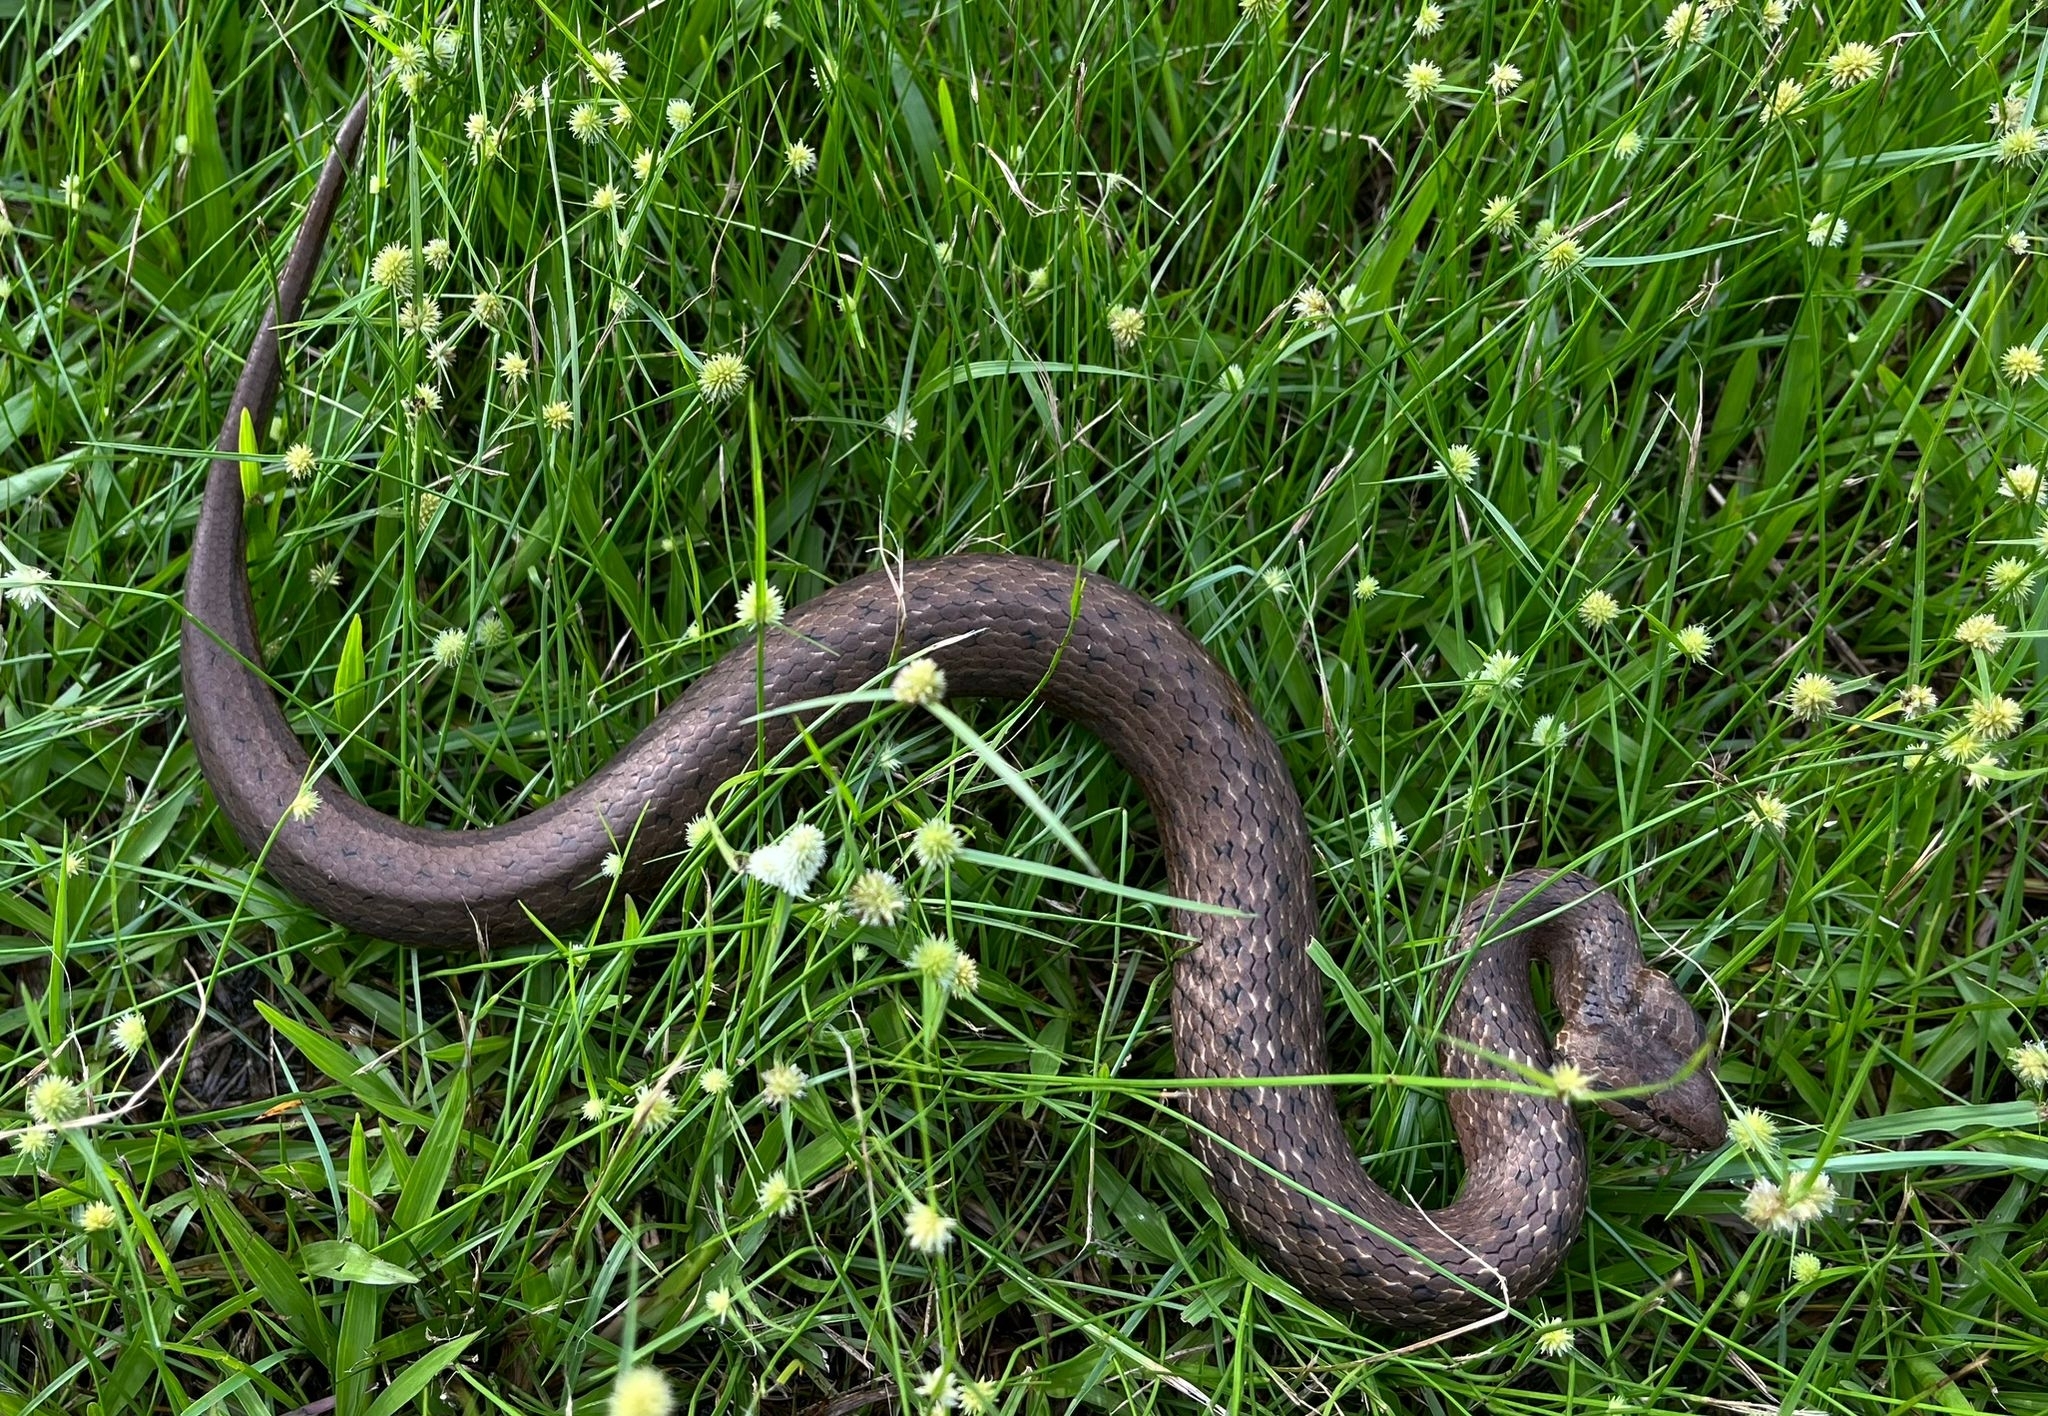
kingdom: Animalia
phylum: Chordata
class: Squamata
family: Colubridae
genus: Mesotes
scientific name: Mesotes
